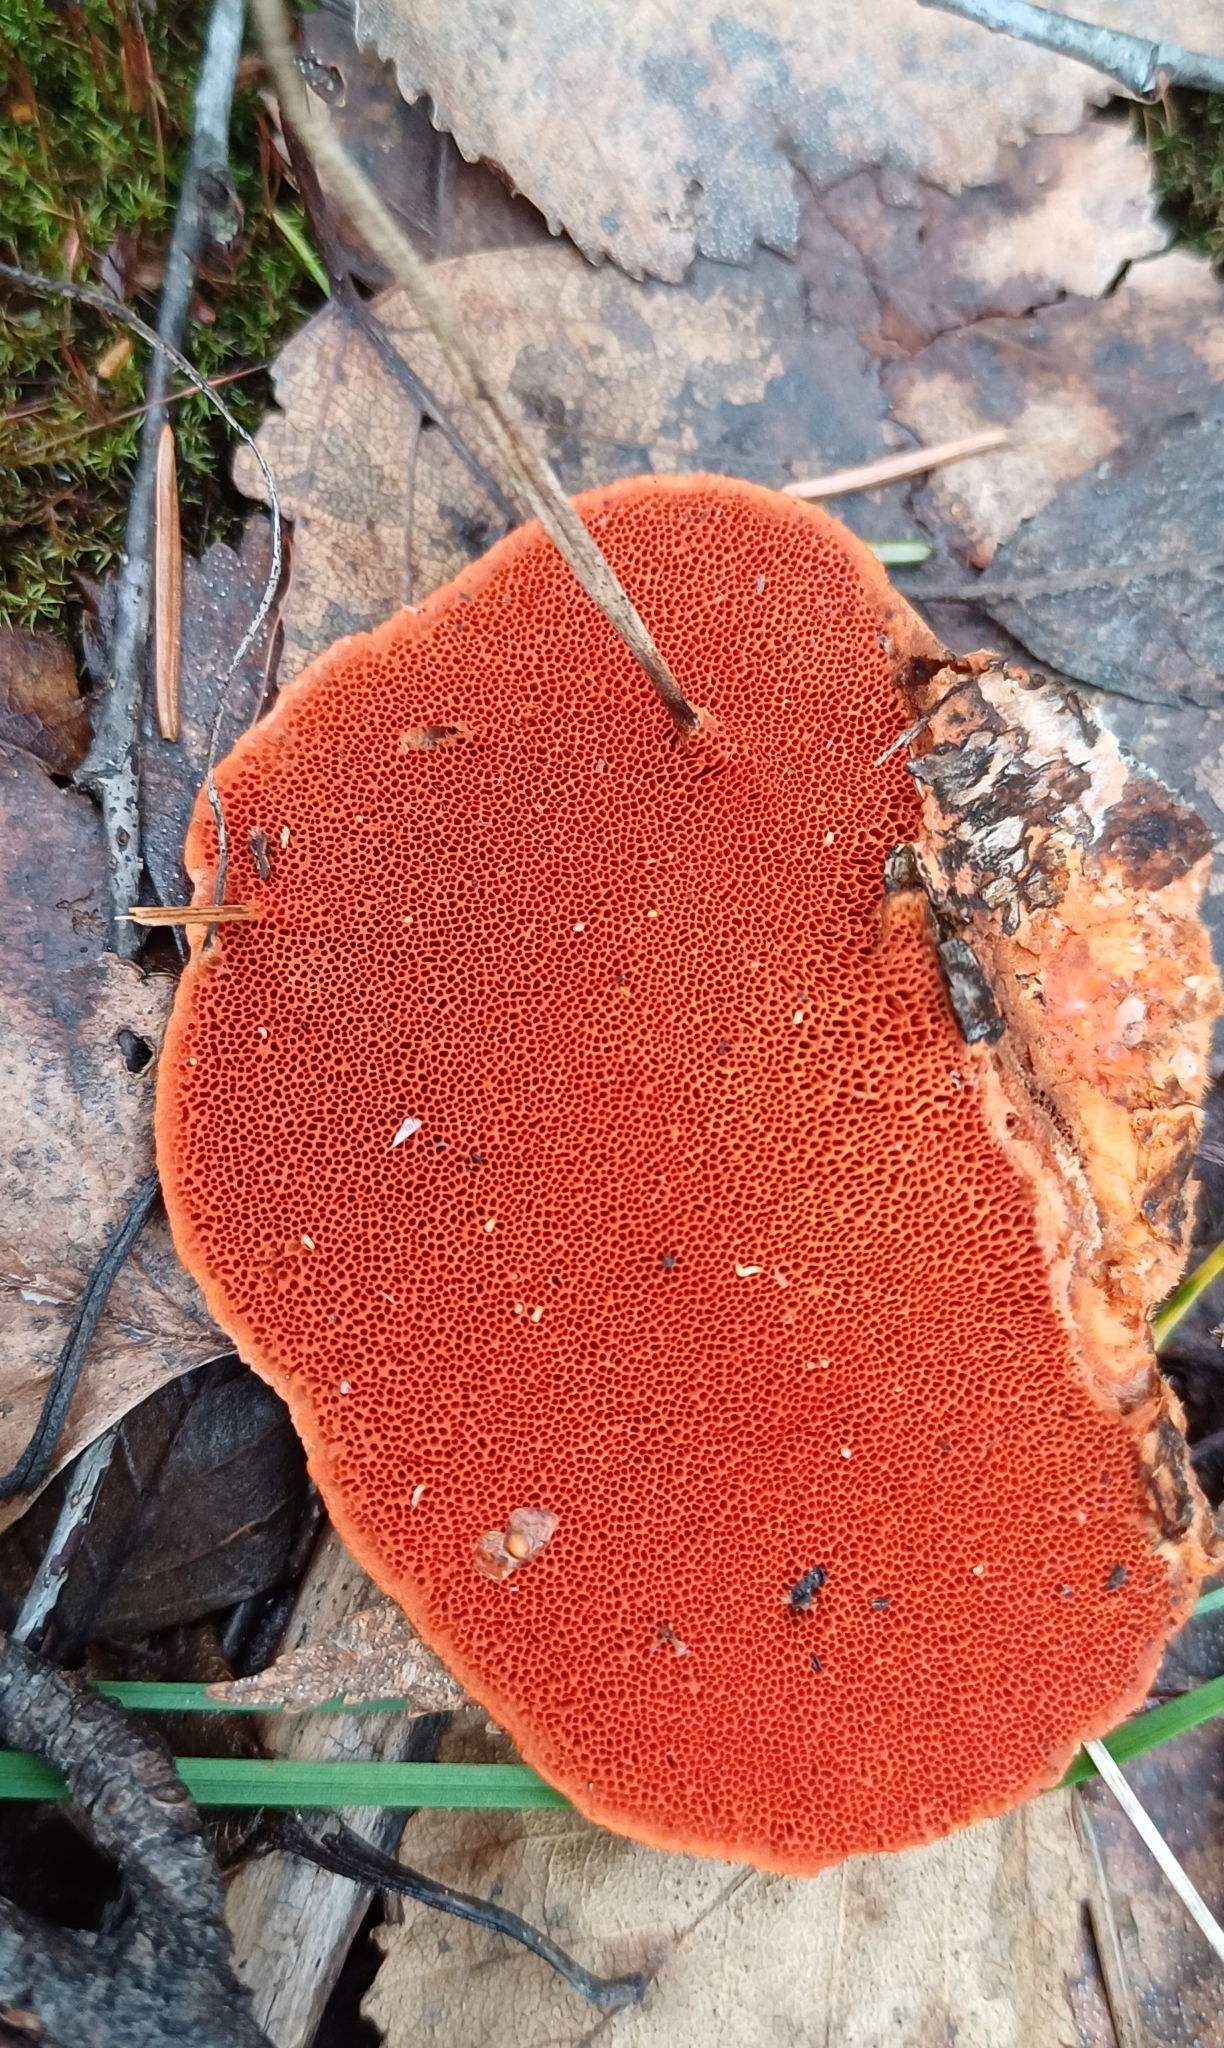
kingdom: Fungi
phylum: Basidiomycota
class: Agaricomycetes
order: Polyporales
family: Polyporaceae
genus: Trametes
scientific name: Trametes cinnabarina
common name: Northern cinnabar polypore
